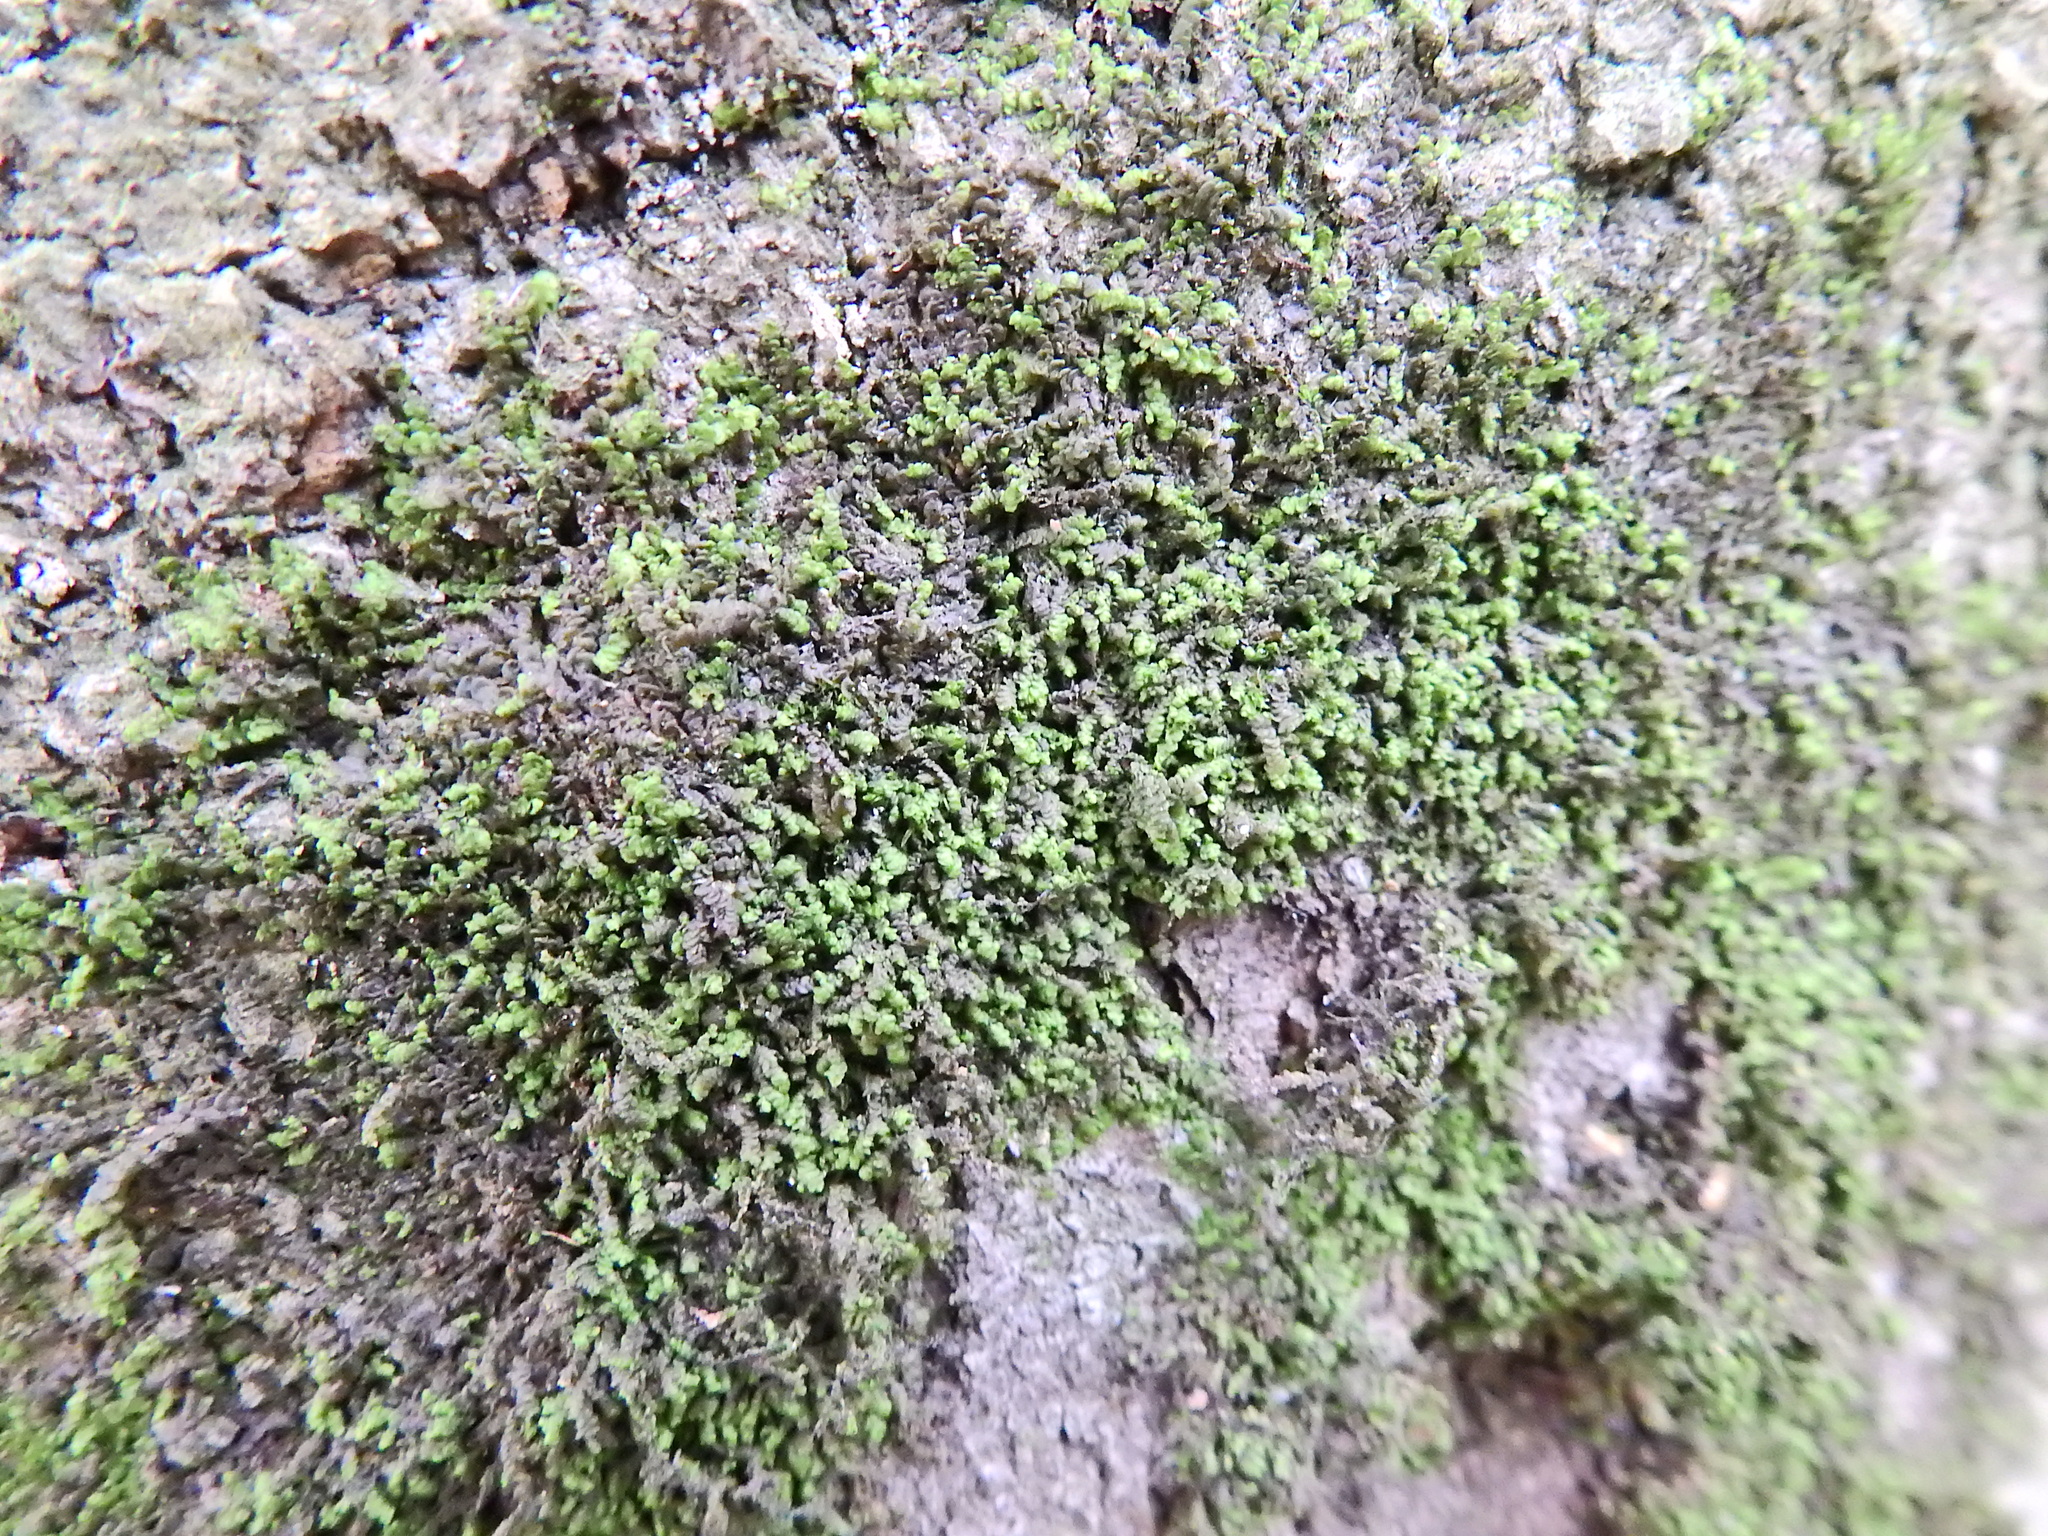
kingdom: Plantae
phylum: Marchantiophyta
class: Jungermanniopsida
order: Porellales
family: Frullaniaceae
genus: Frullania
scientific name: Frullania dilatata
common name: Dilated scalewort
